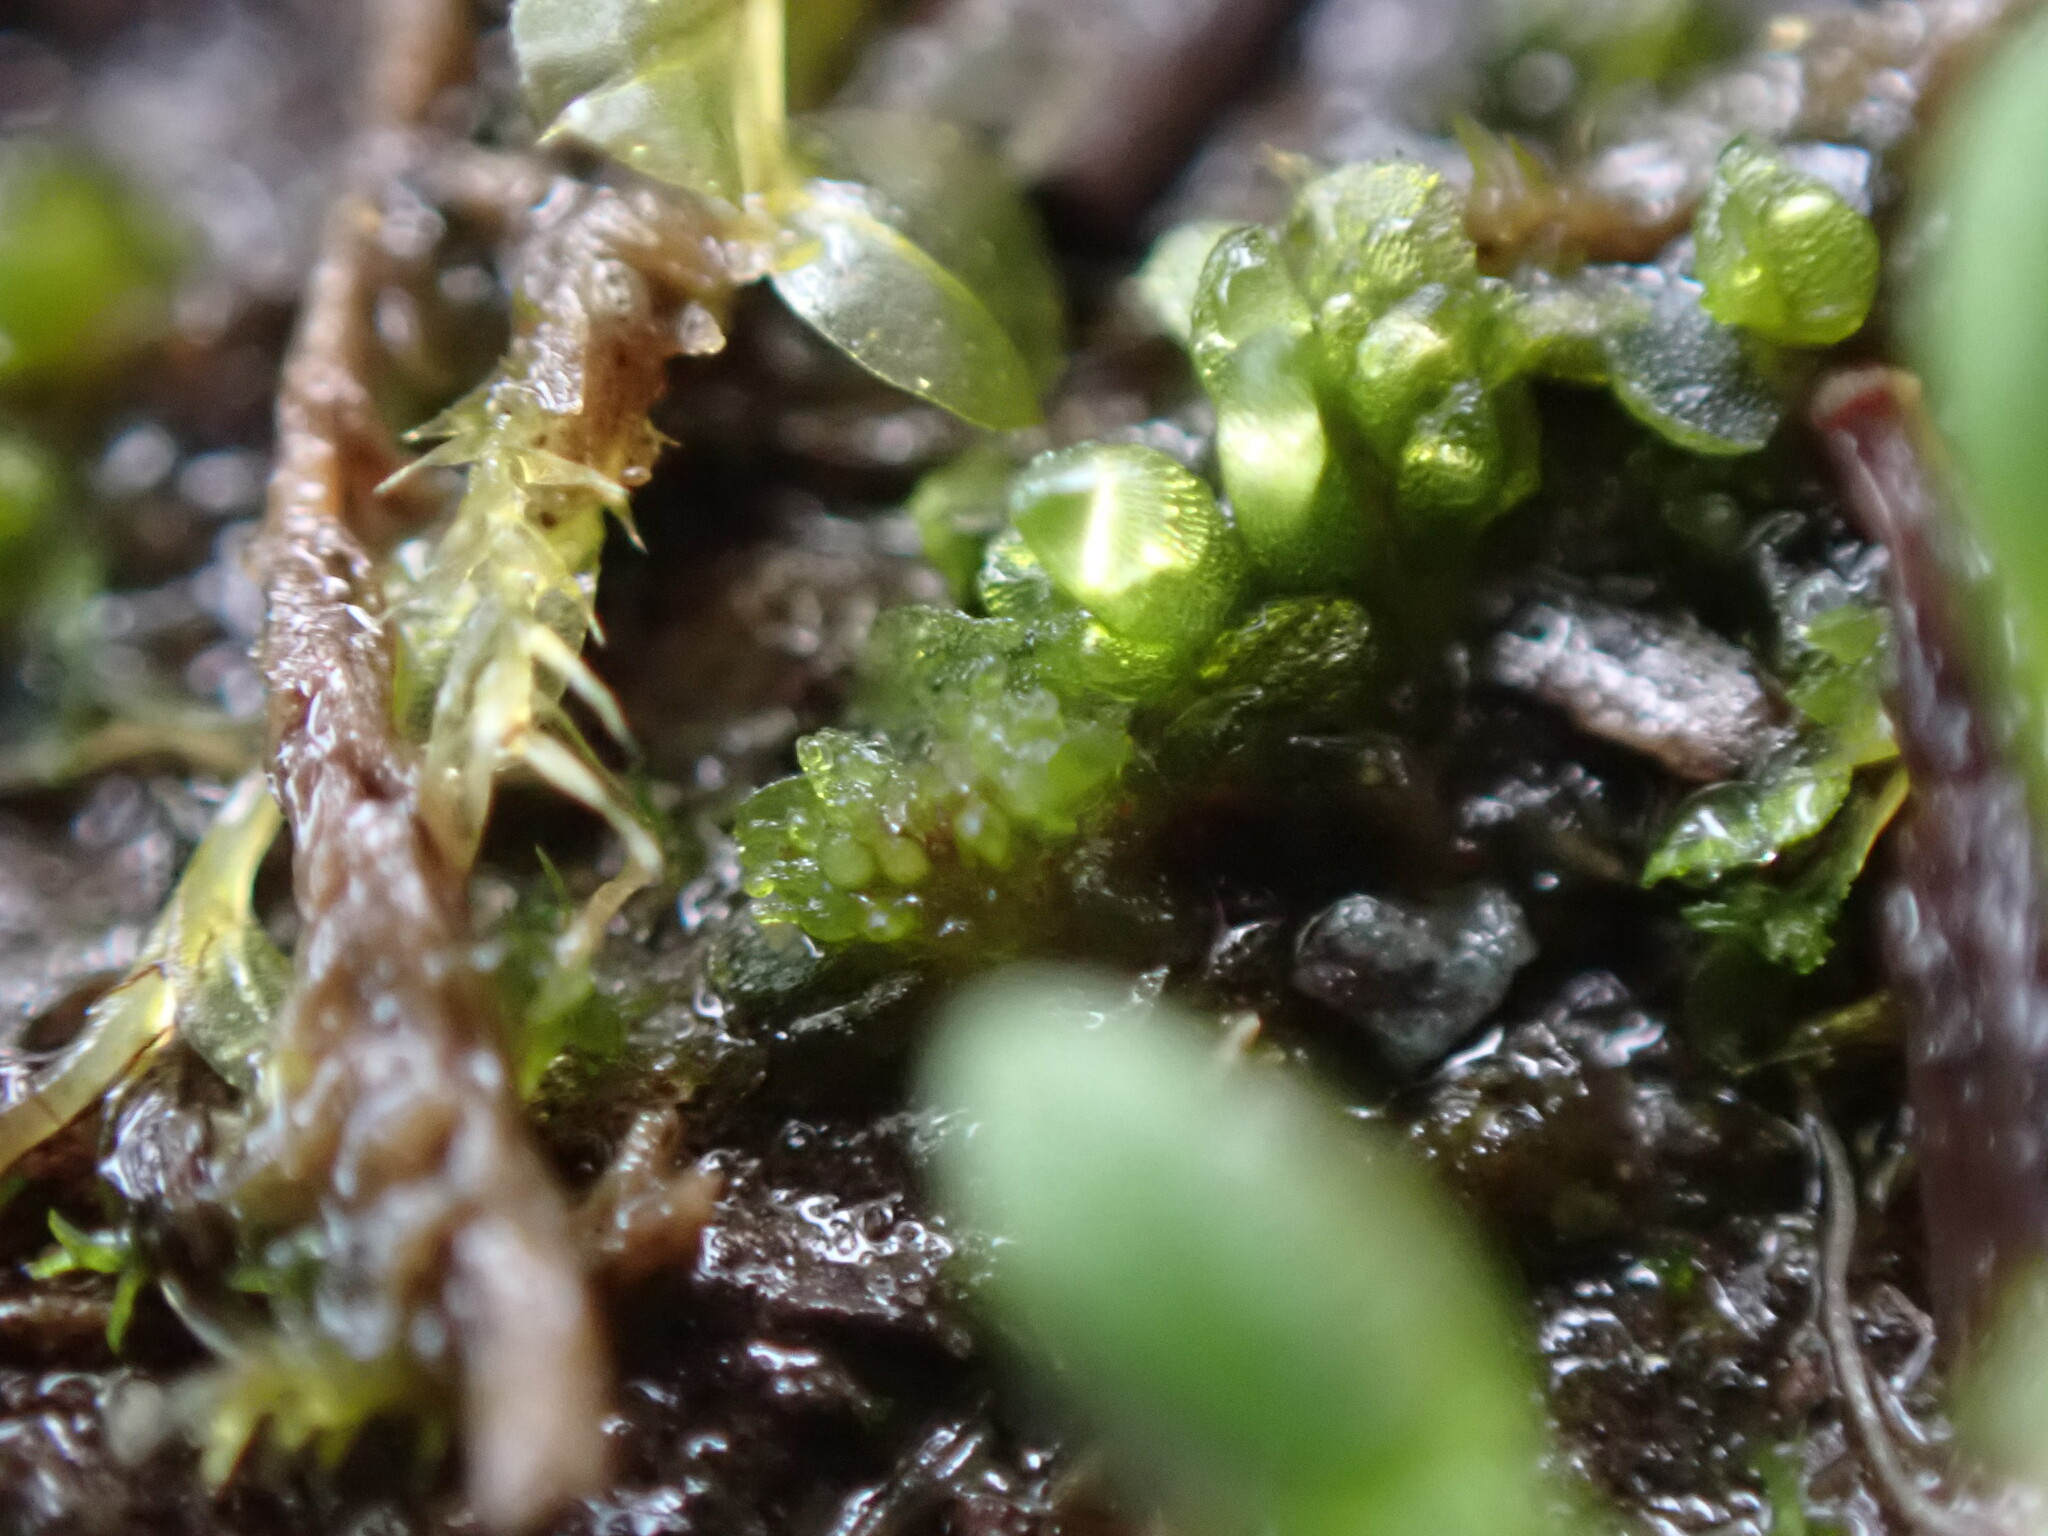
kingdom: Plantae
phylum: Marchantiophyta
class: Marchantiopsida
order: Sphaerocarpales
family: Sphaerocarpaceae
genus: Sphaerocarpos
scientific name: Sphaerocarpos texanus
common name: Texas balloonwort
